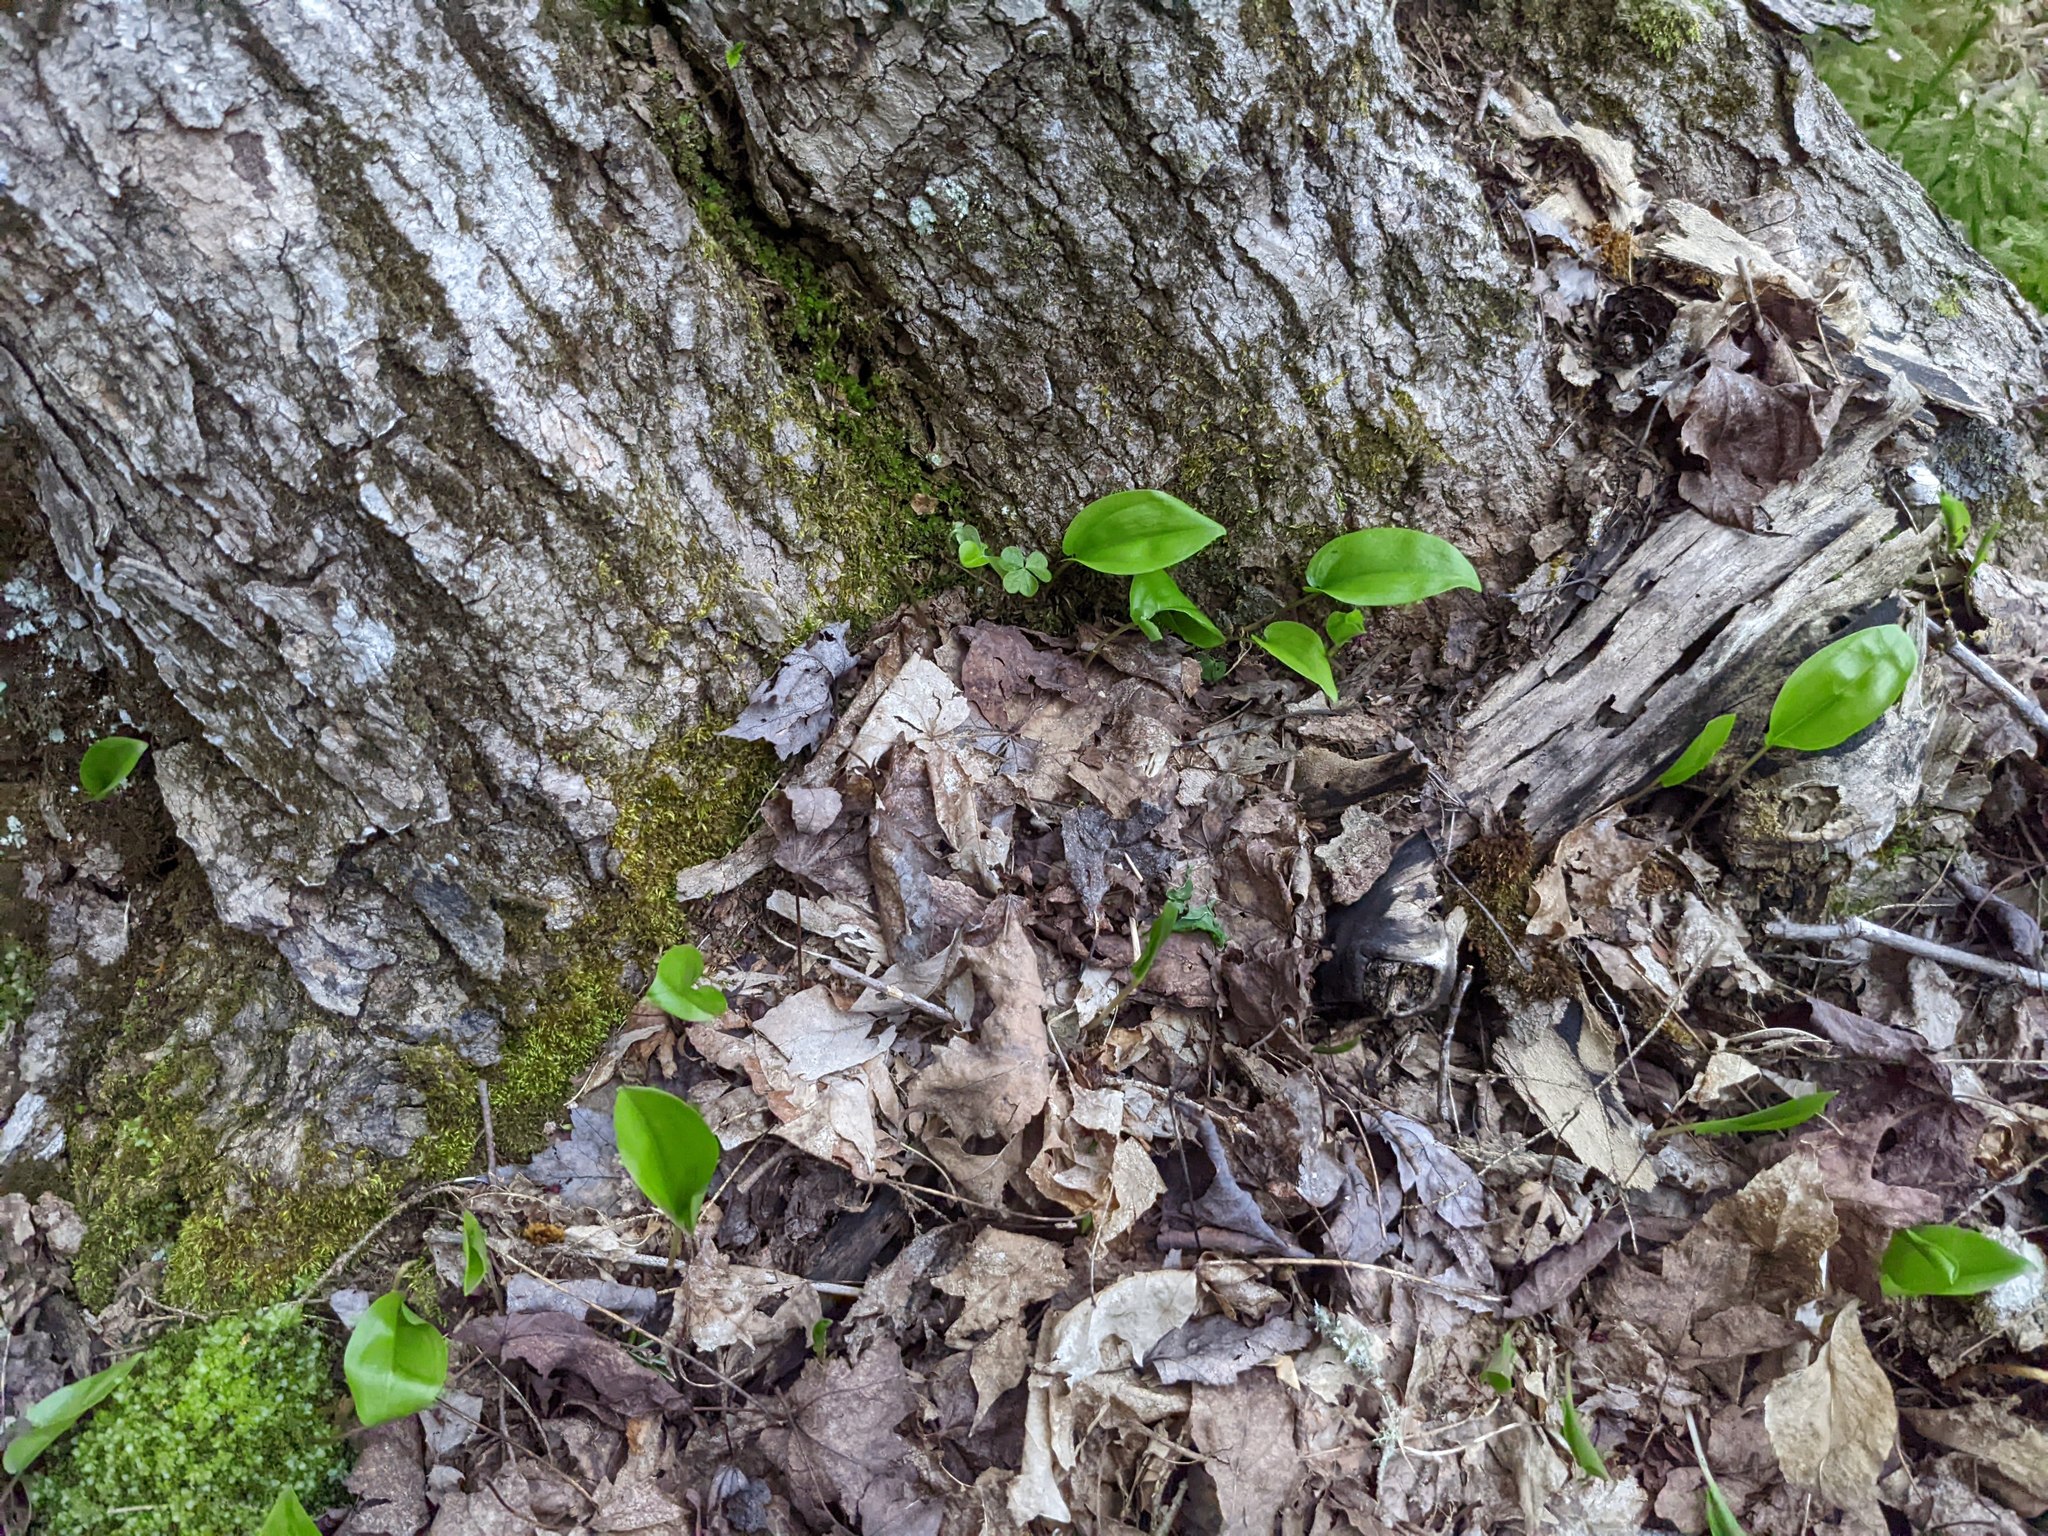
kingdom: Plantae
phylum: Tracheophyta
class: Liliopsida
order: Asparagales
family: Asparagaceae
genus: Maianthemum
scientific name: Maianthemum canadense
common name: False lily-of-the-valley
